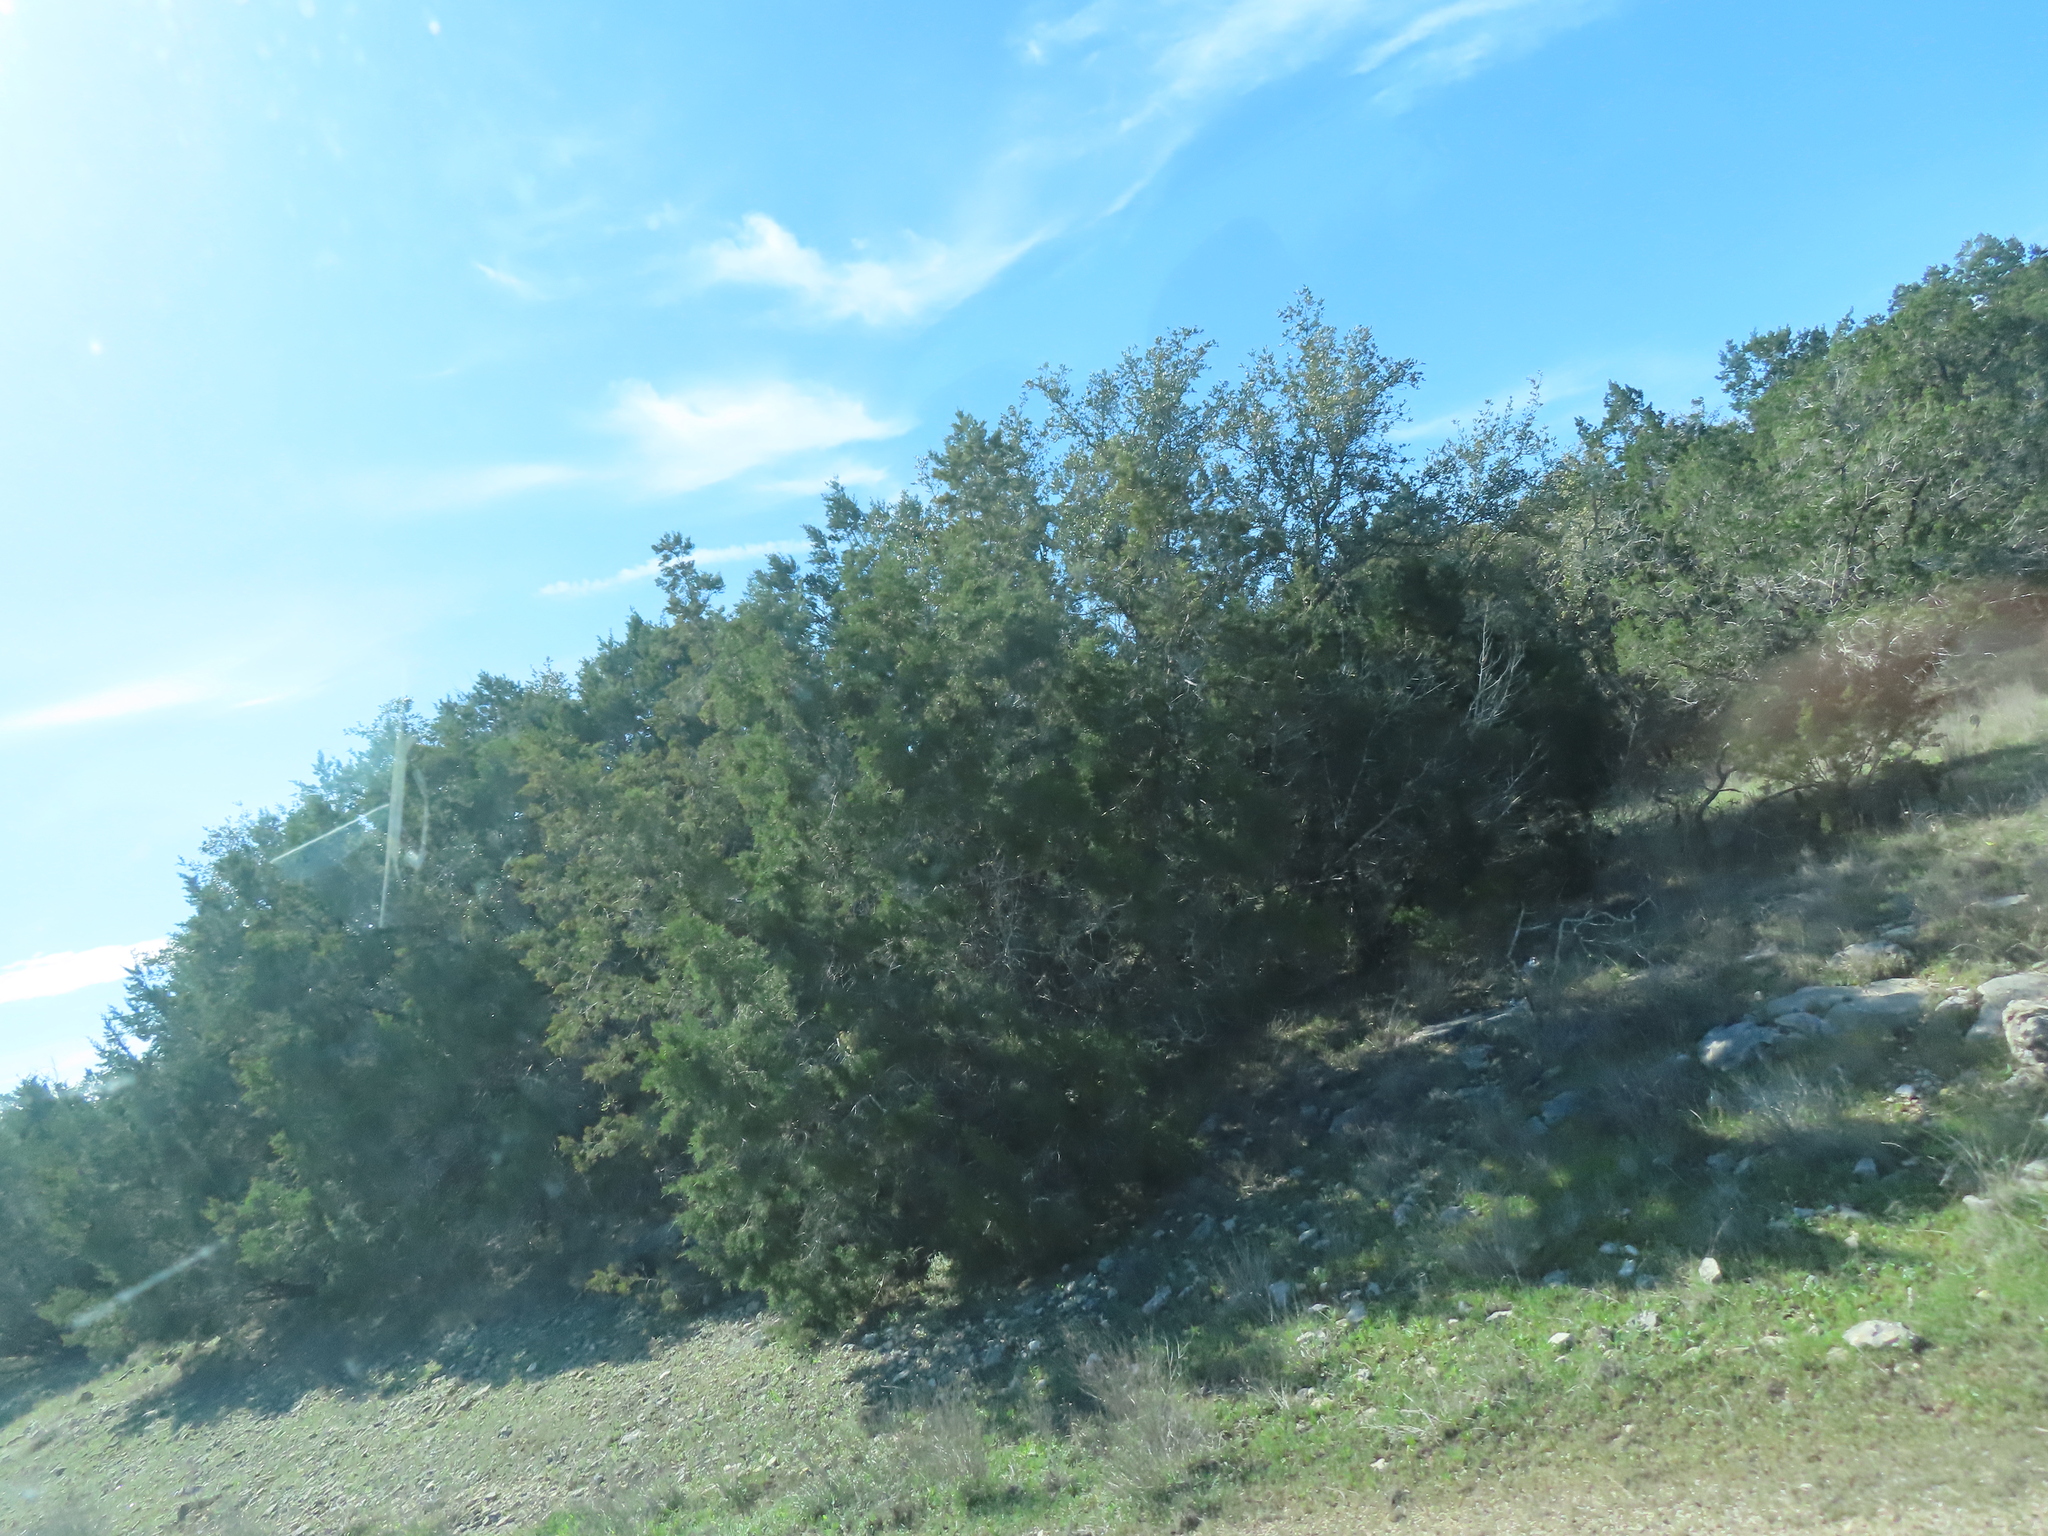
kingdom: Plantae
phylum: Tracheophyta
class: Pinopsida
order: Pinales
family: Cupressaceae
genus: Juniperus
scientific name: Juniperus ashei
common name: Mexican juniper
